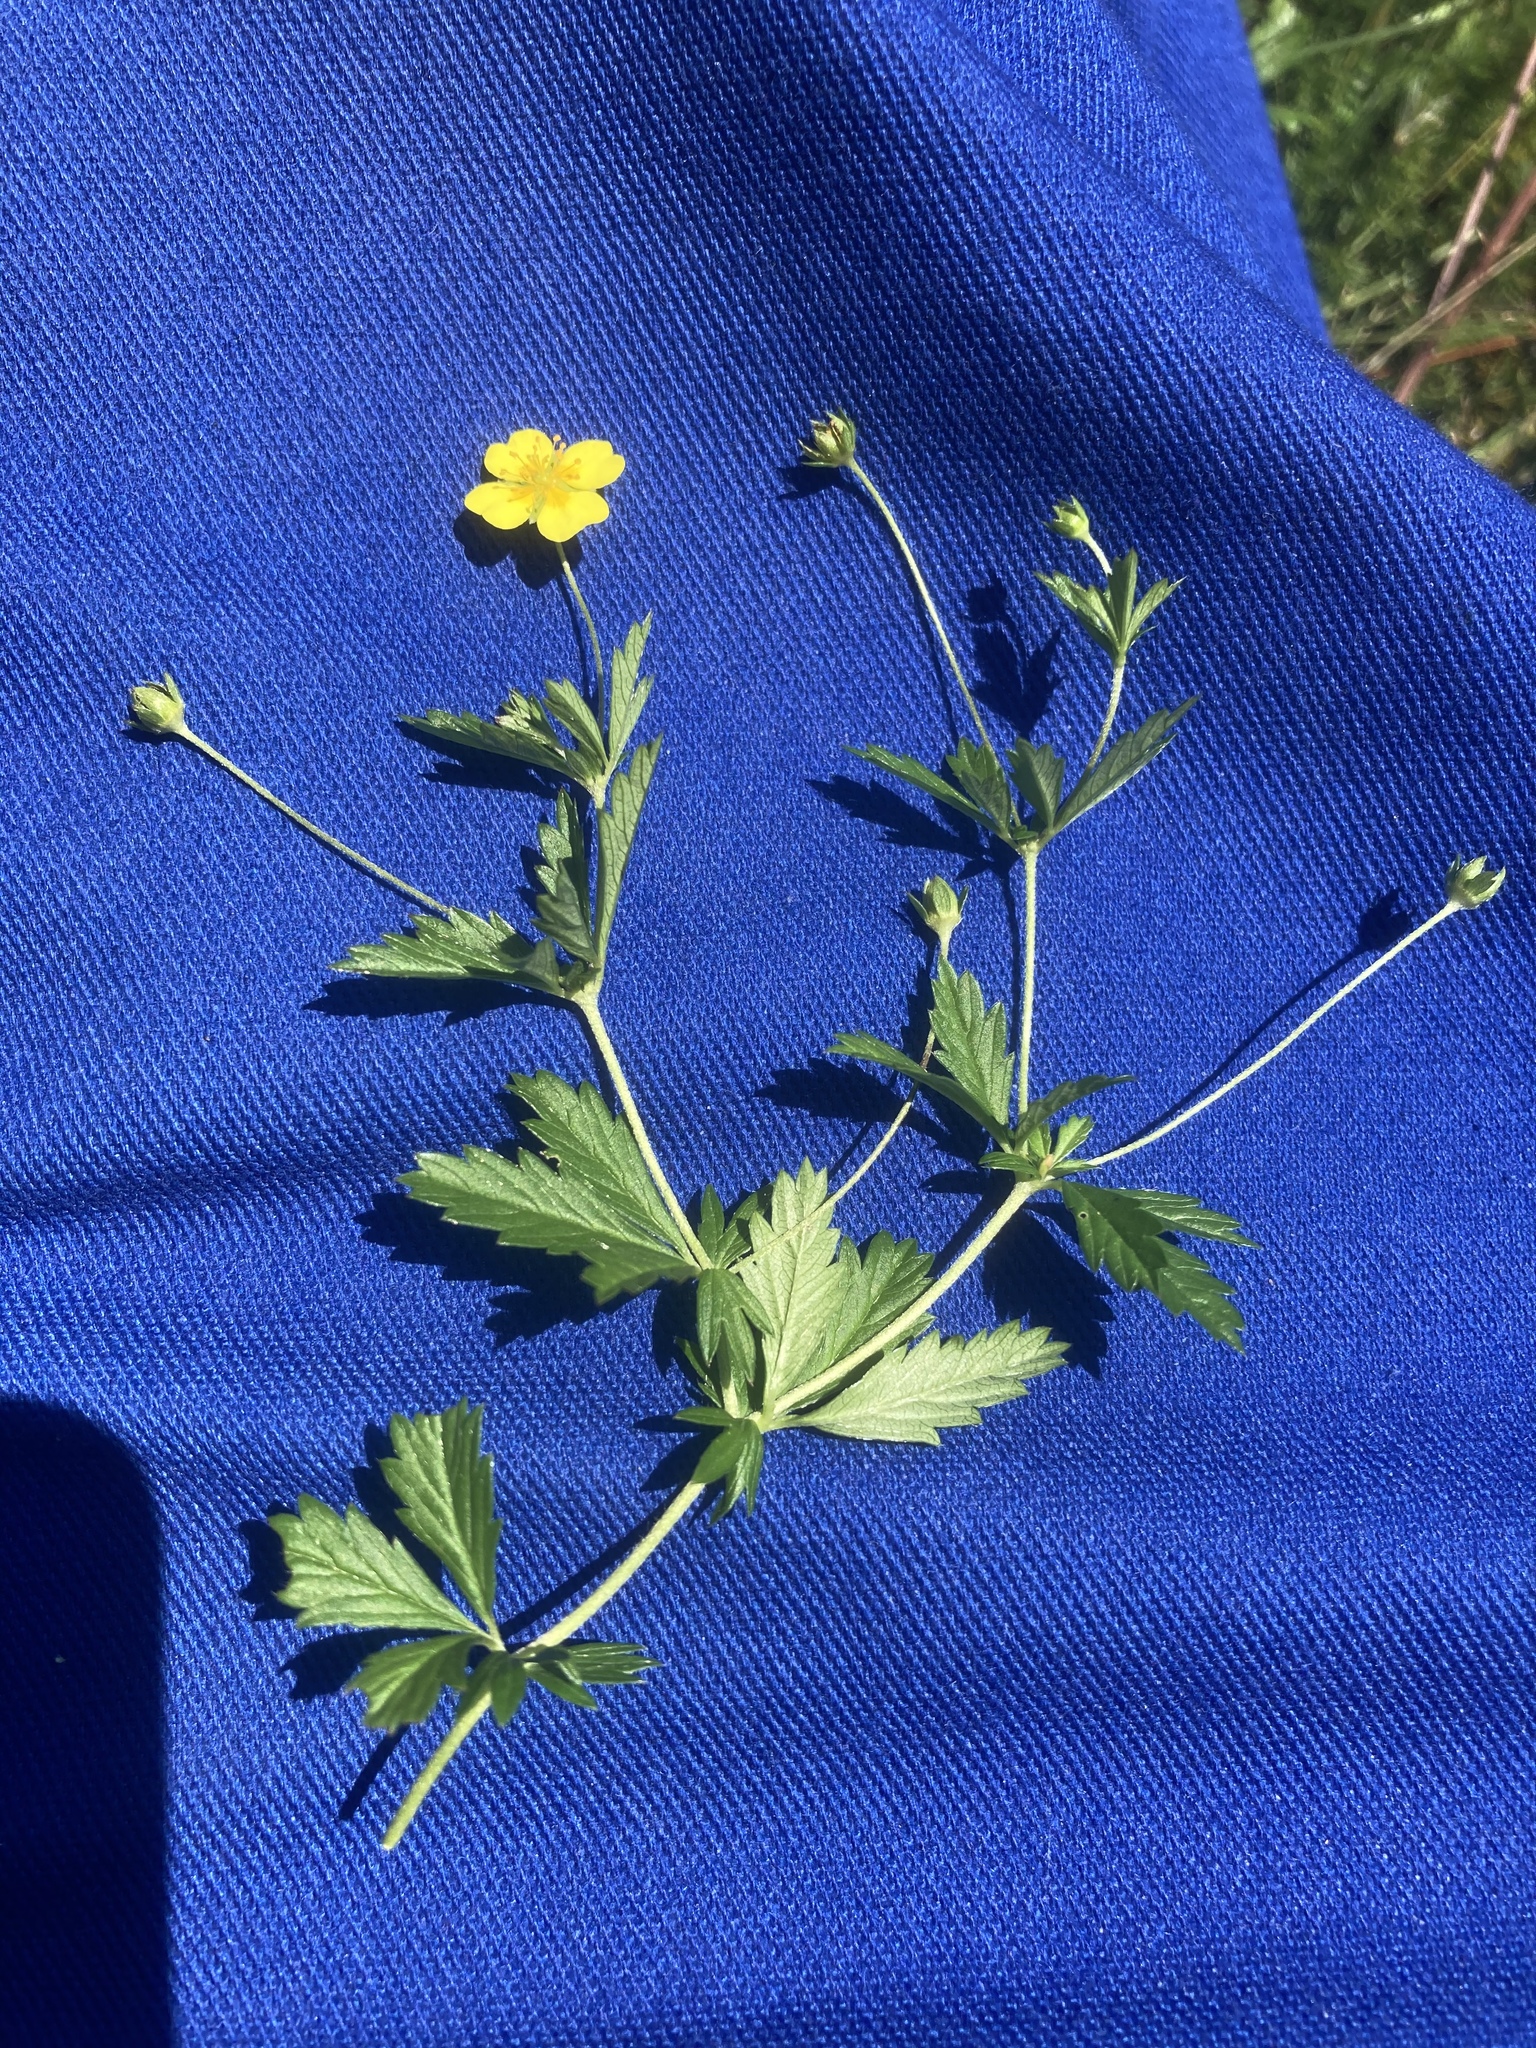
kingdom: Plantae
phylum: Tracheophyta
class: Magnoliopsida
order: Rosales
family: Rosaceae
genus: Potentilla
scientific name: Potentilla erecta
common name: Tormentil
